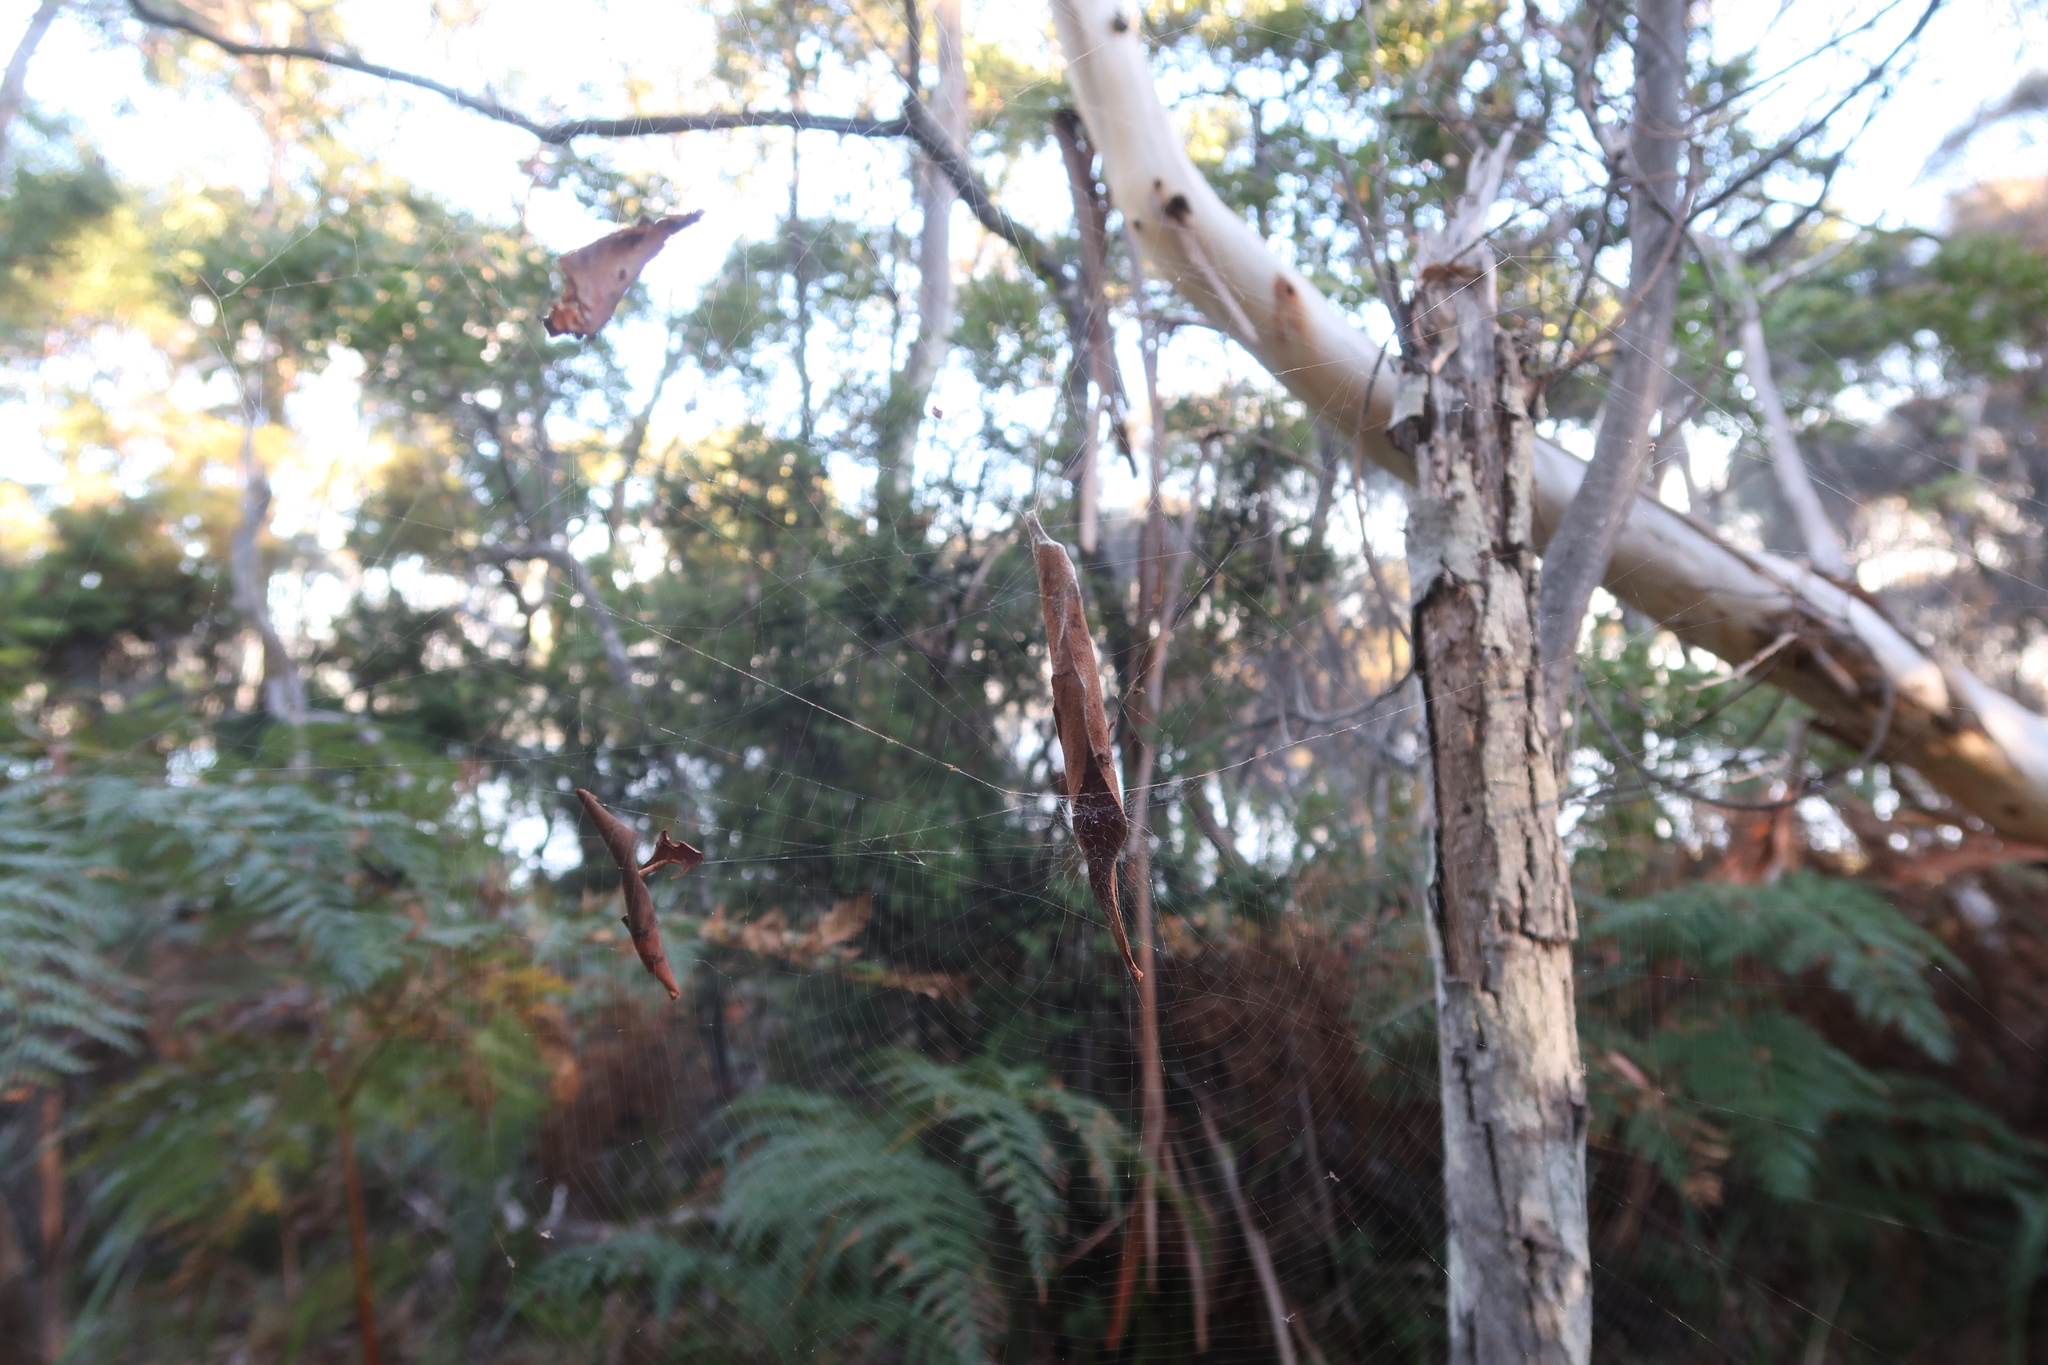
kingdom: Animalia
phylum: Arthropoda
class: Arachnida
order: Araneae
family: Araneidae
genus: Phonognatha
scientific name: Phonognatha graeffei
